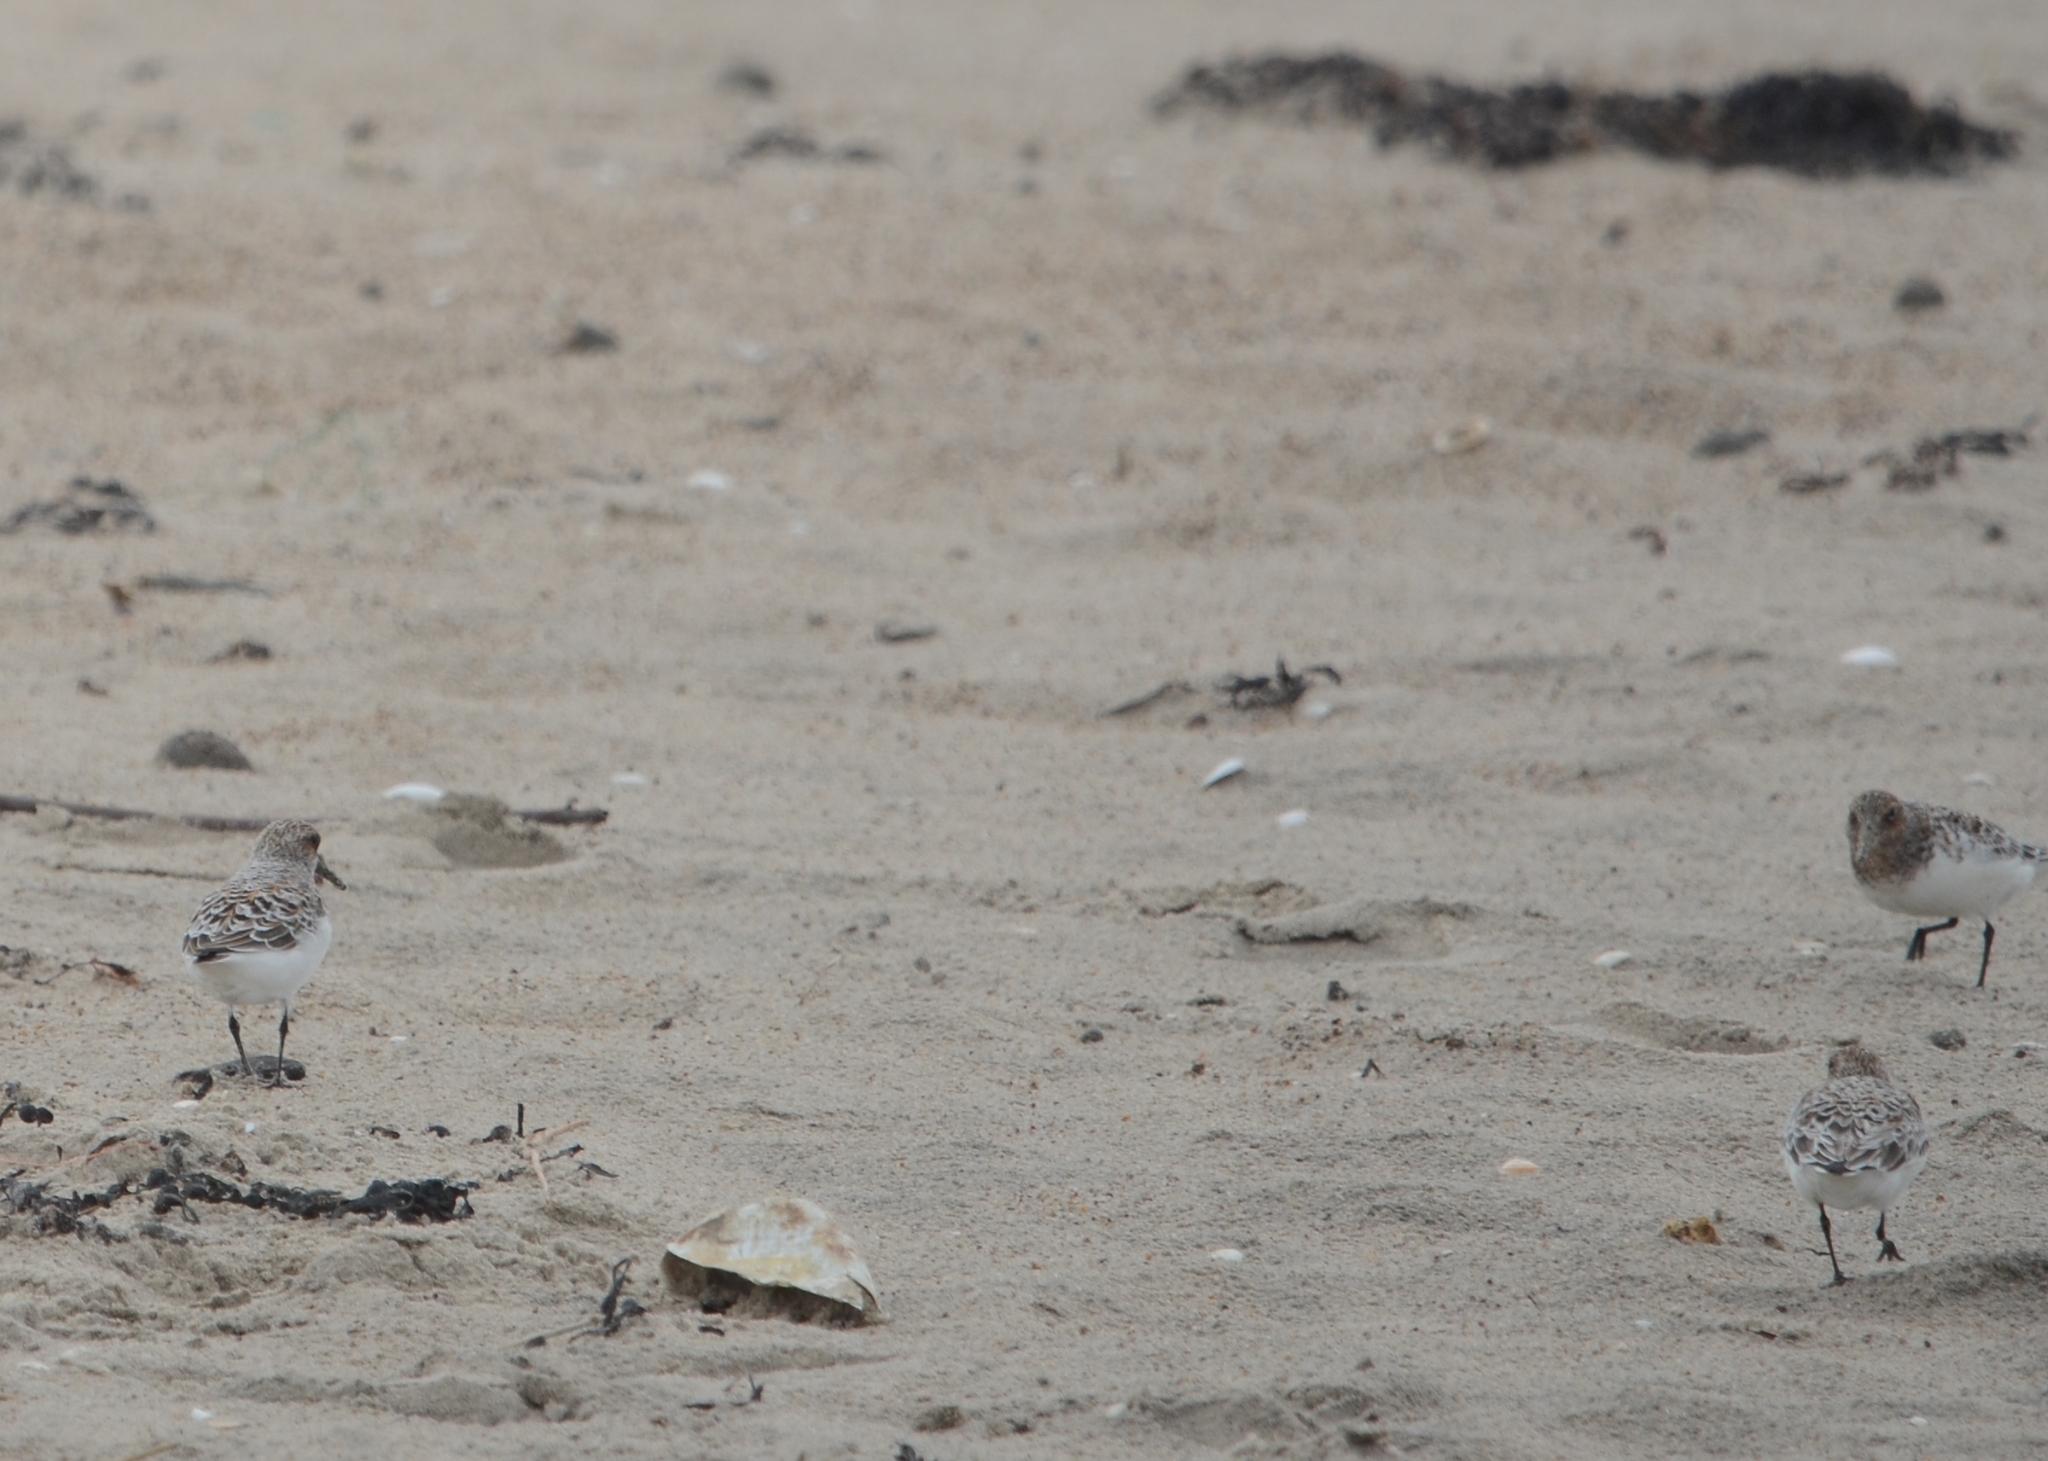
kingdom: Animalia
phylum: Chordata
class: Aves
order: Charadriiformes
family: Scolopacidae
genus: Calidris
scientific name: Calidris alba
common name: Sanderling
